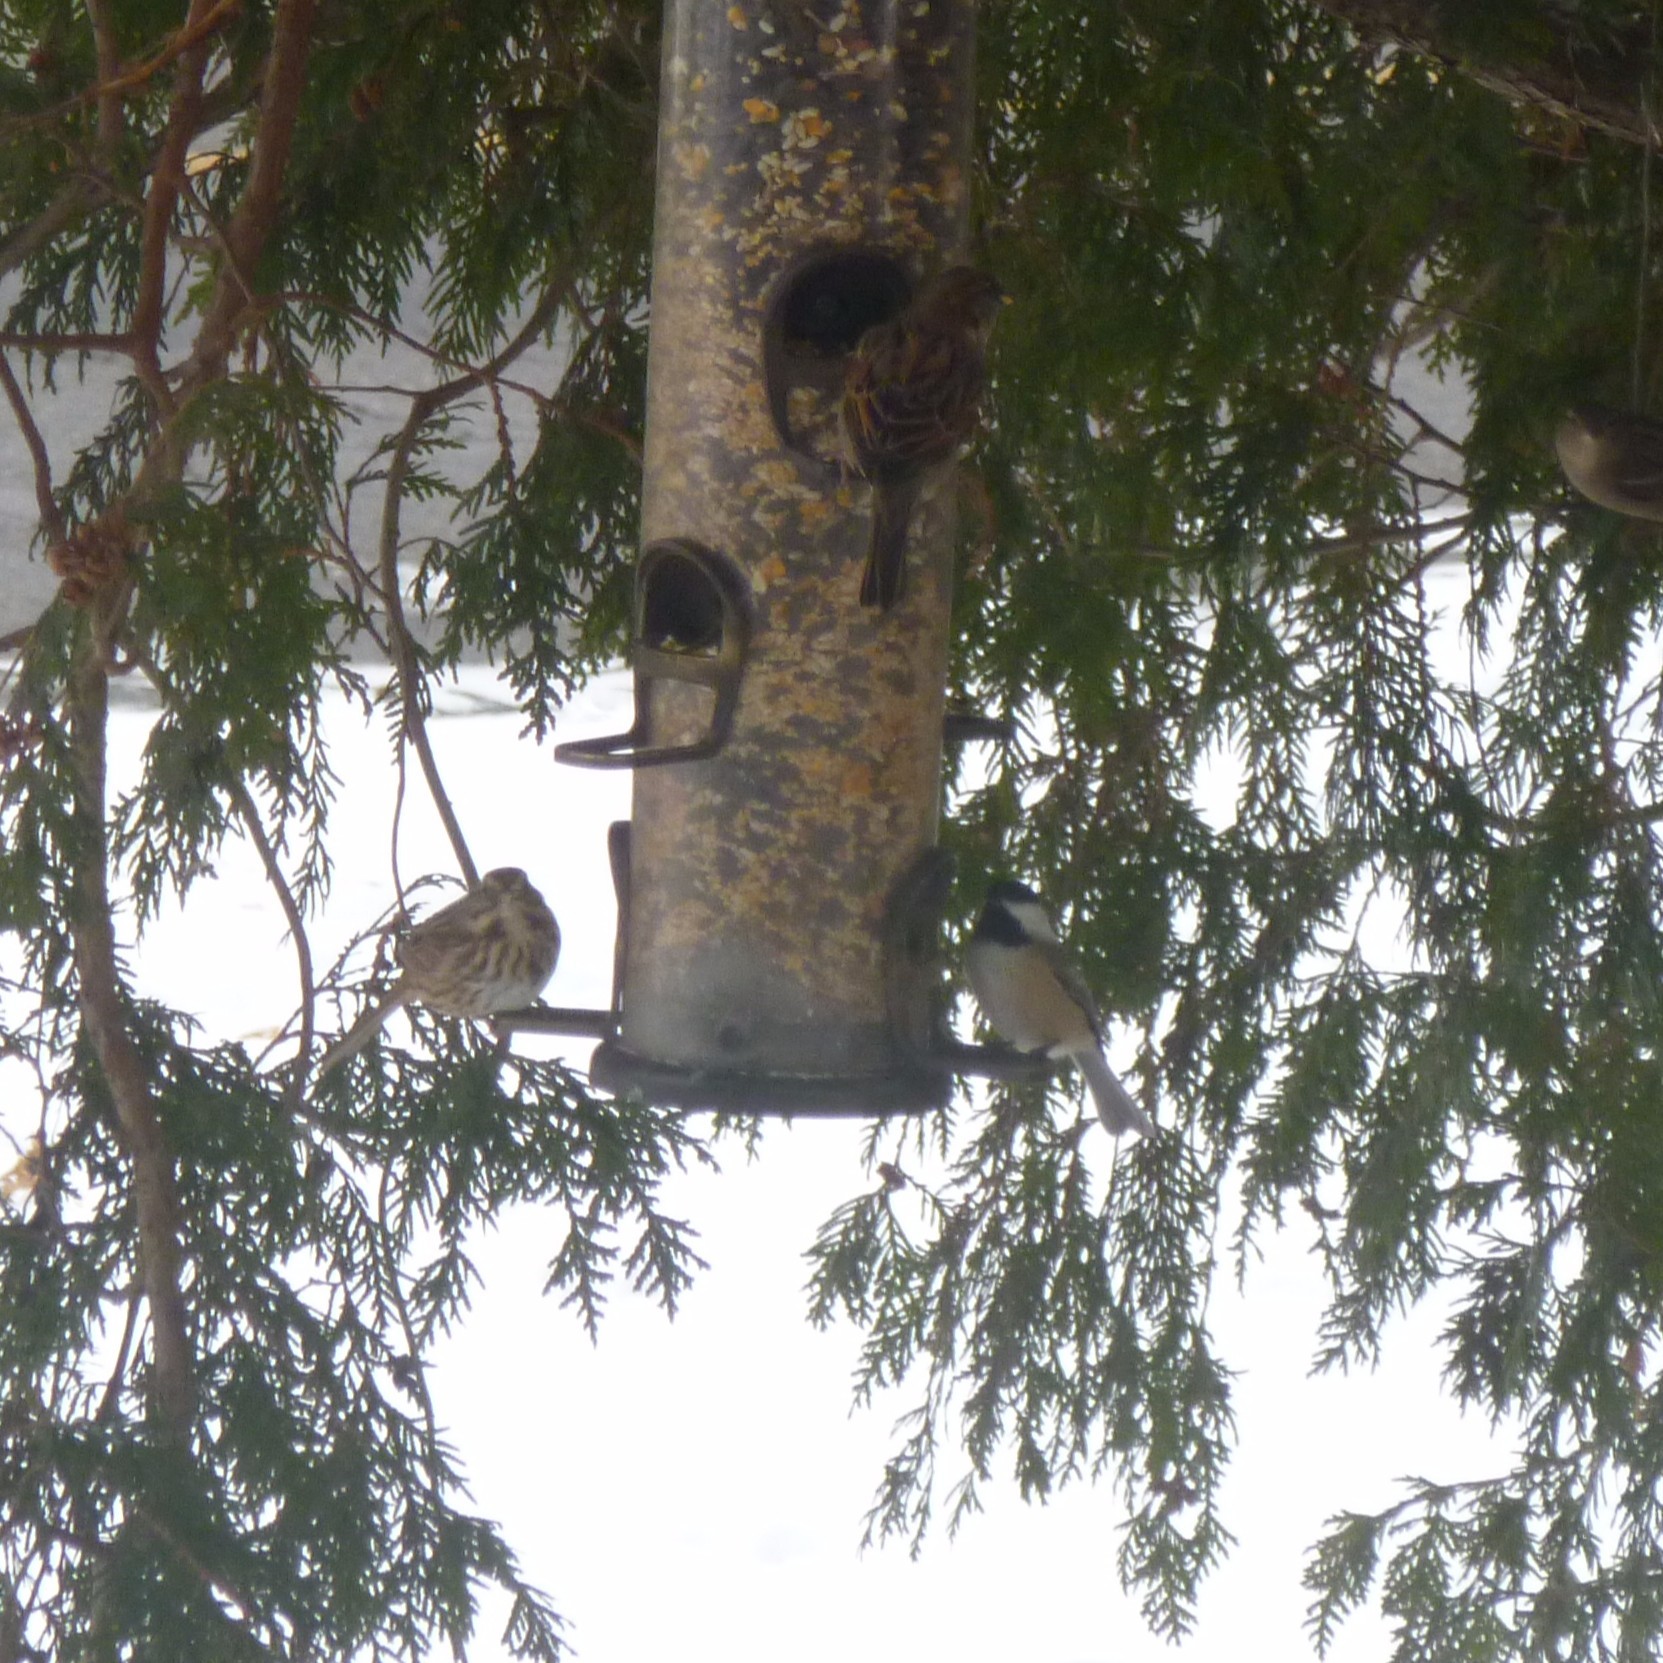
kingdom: Animalia
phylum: Chordata
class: Aves
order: Passeriformes
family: Passerellidae
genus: Melospiza
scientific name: Melospiza melodia
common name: Song sparrow
